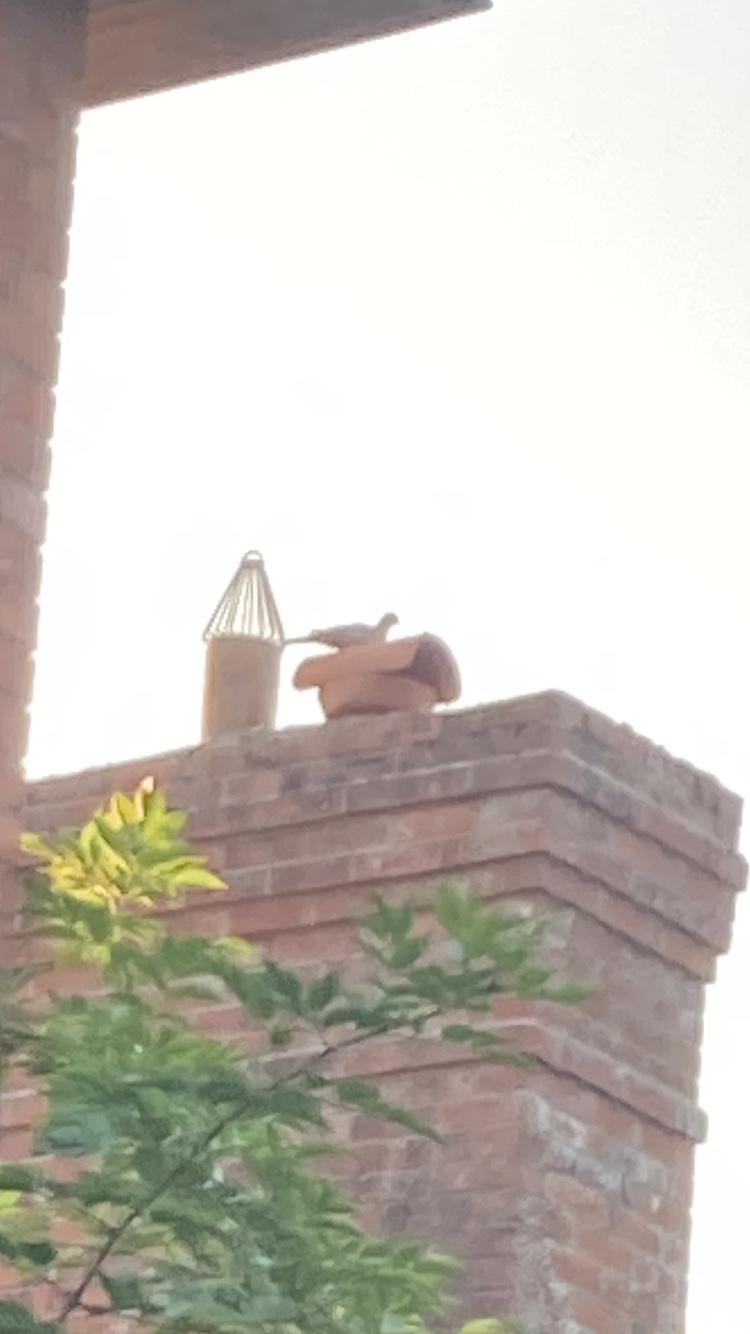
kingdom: Animalia
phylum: Chordata
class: Aves
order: Columbiformes
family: Columbidae
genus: Streptopelia
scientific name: Streptopelia decaocto
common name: Eurasian collared dove
